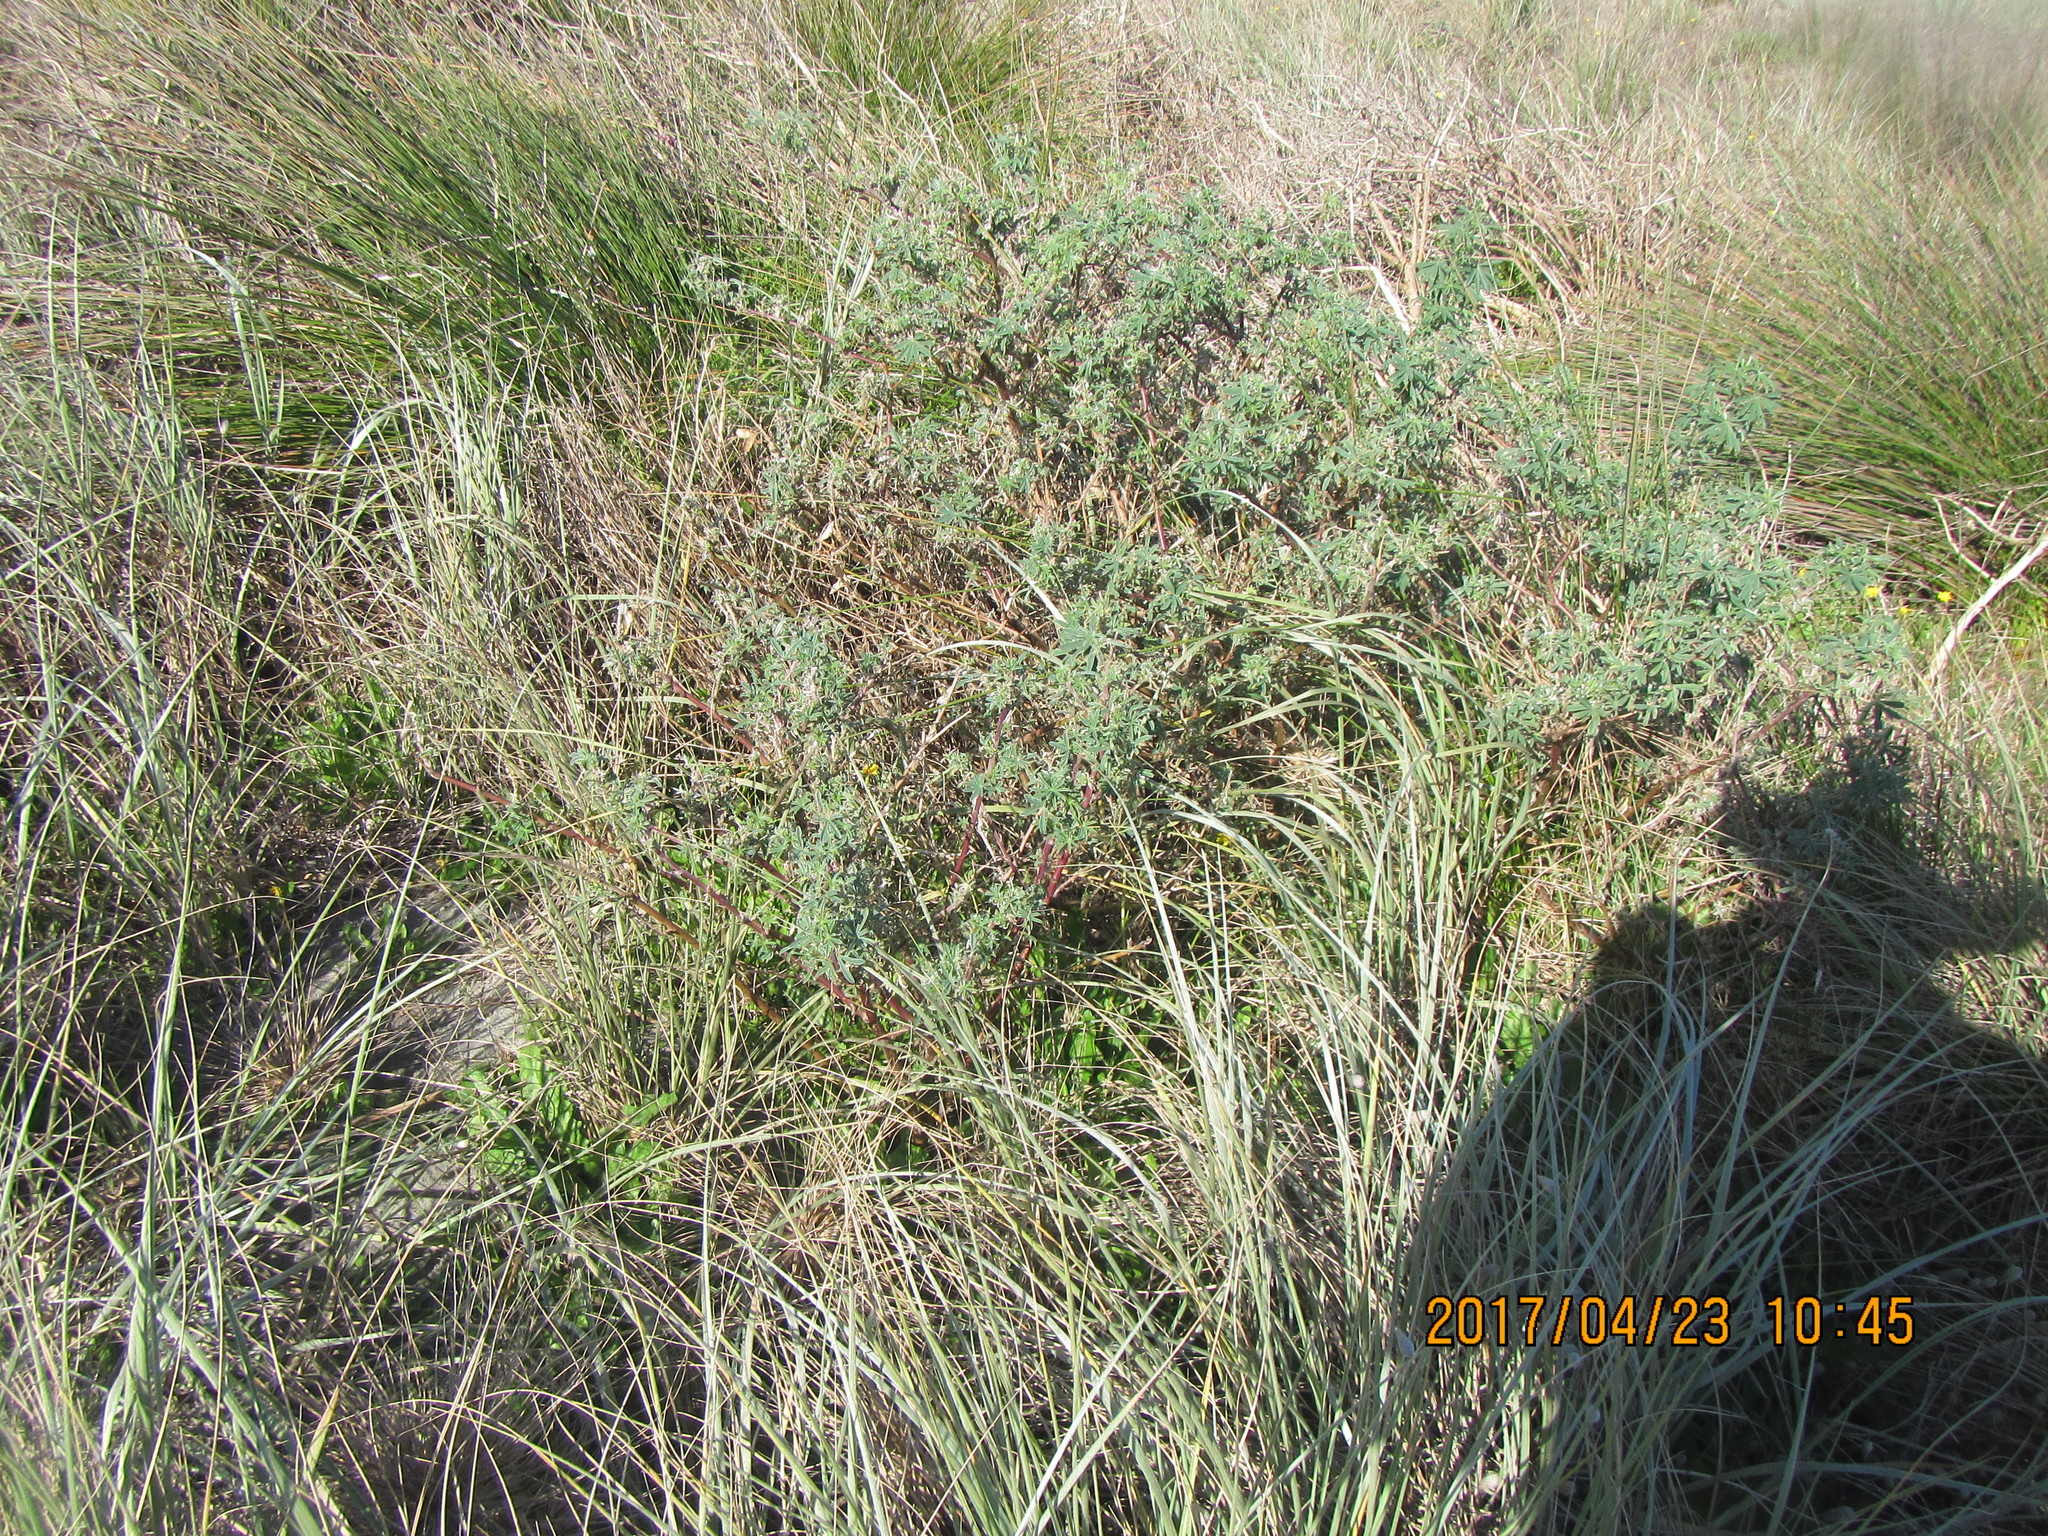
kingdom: Plantae
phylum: Tracheophyta
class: Magnoliopsida
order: Fabales
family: Fabaceae
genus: Lupinus
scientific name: Lupinus arboreus
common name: Yellow bush lupine
